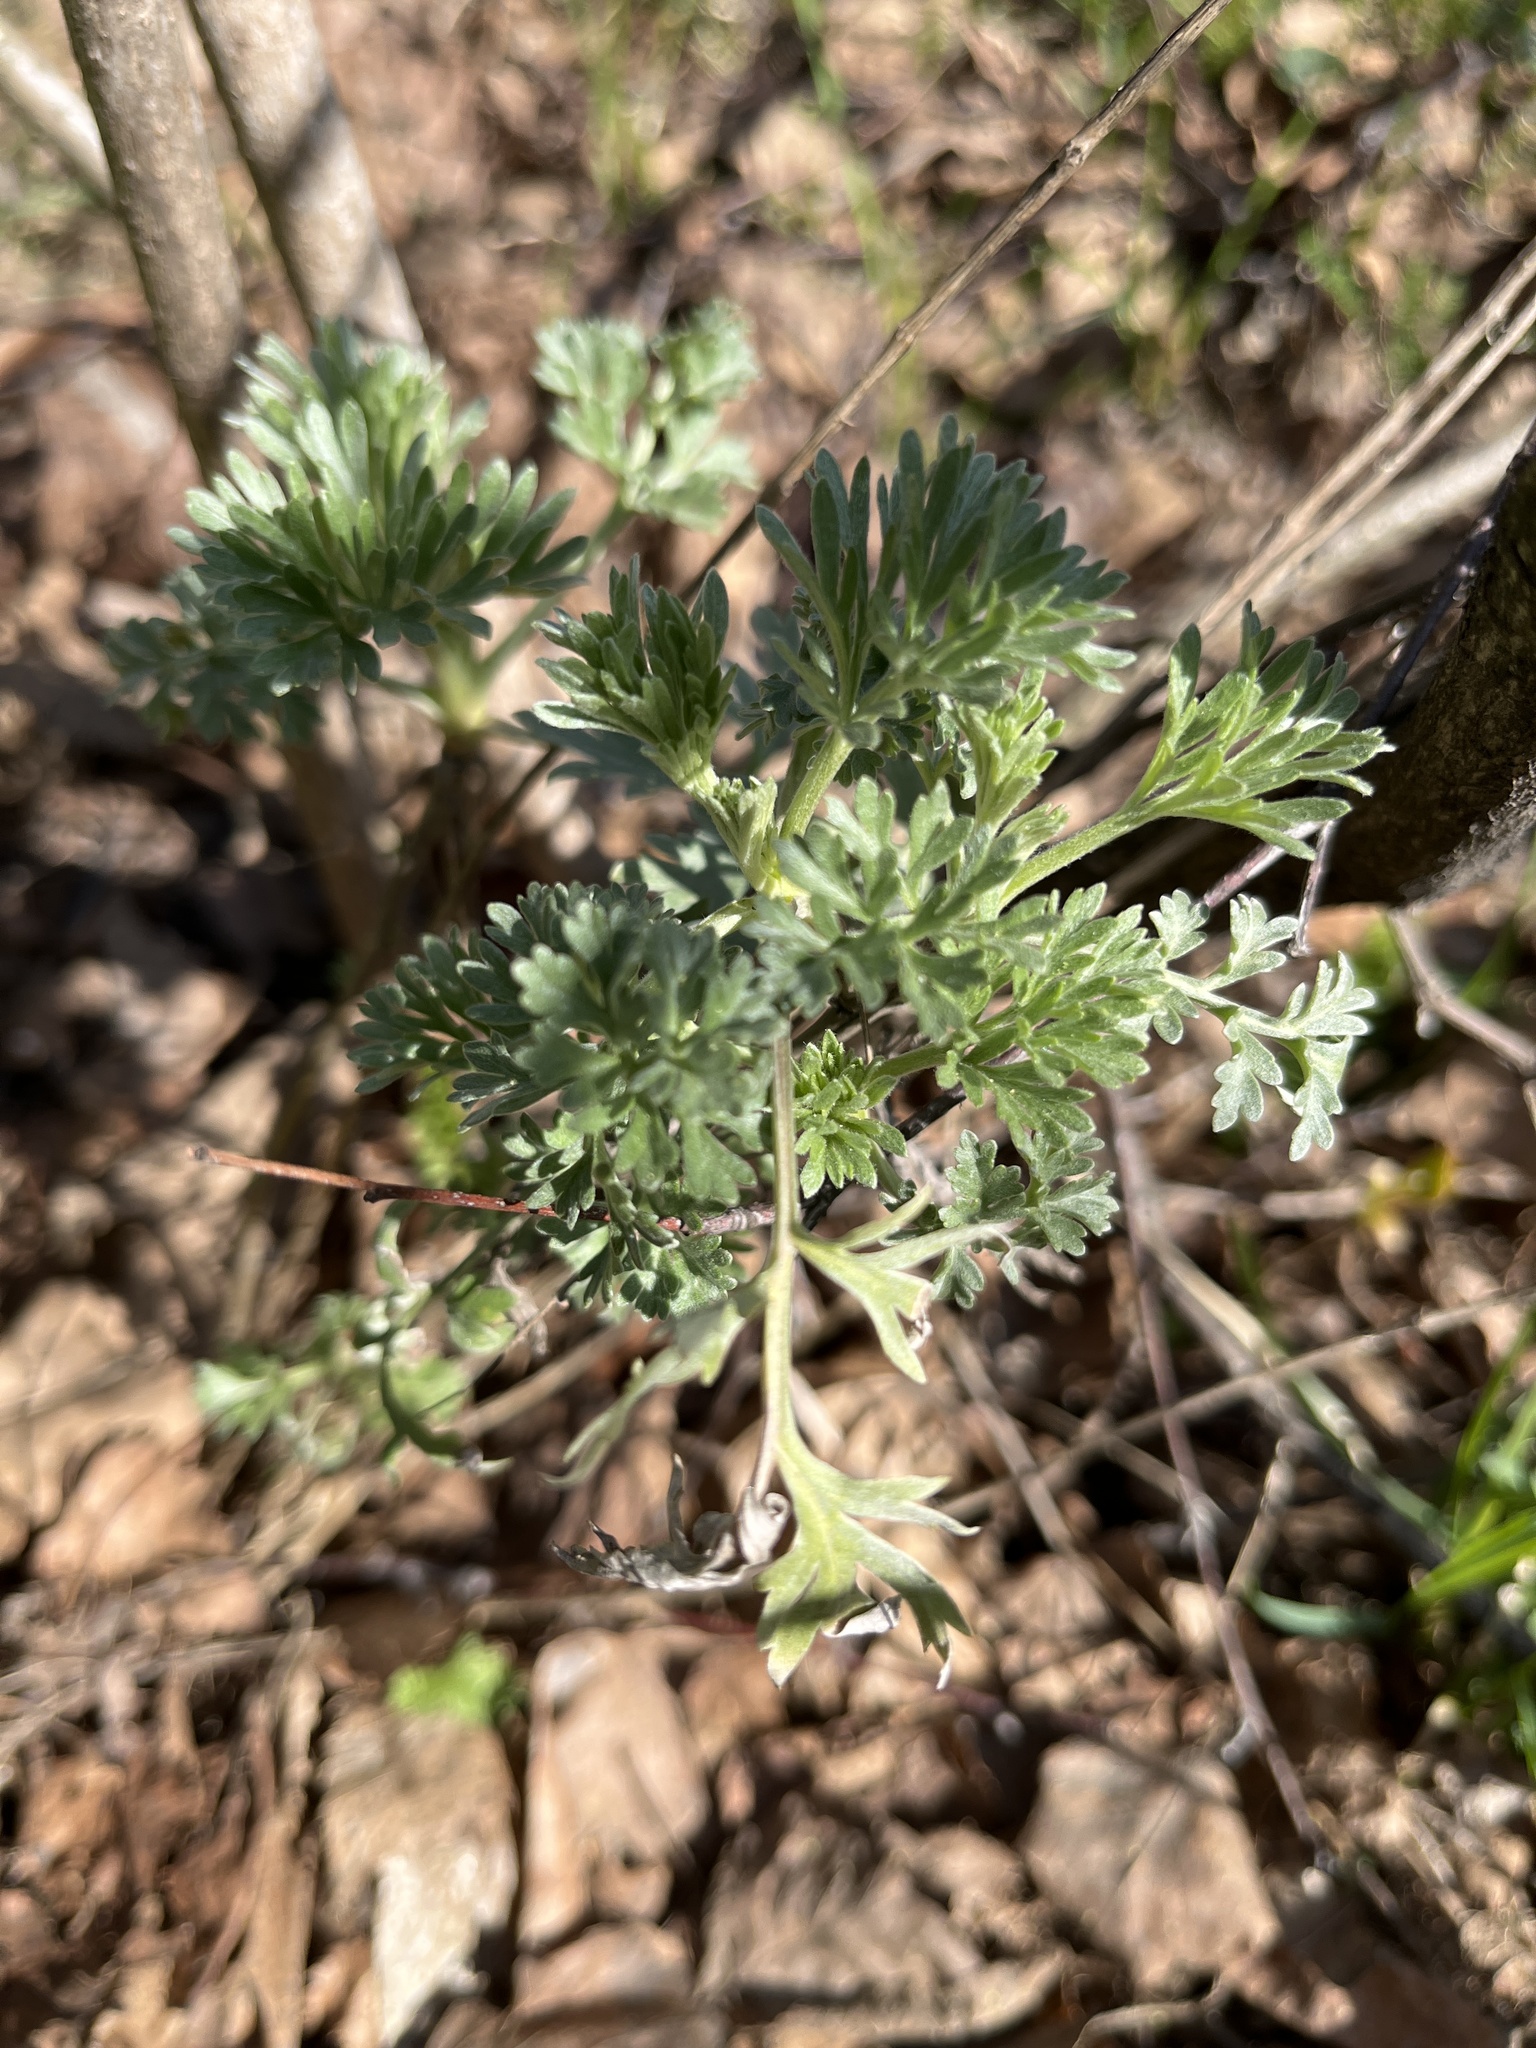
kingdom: Plantae
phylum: Tracheophyta
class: Magnoliopsida
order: Asterales
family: Asteraceae
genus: Artemisia
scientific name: Artemisia absinthium
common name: Wormwood
